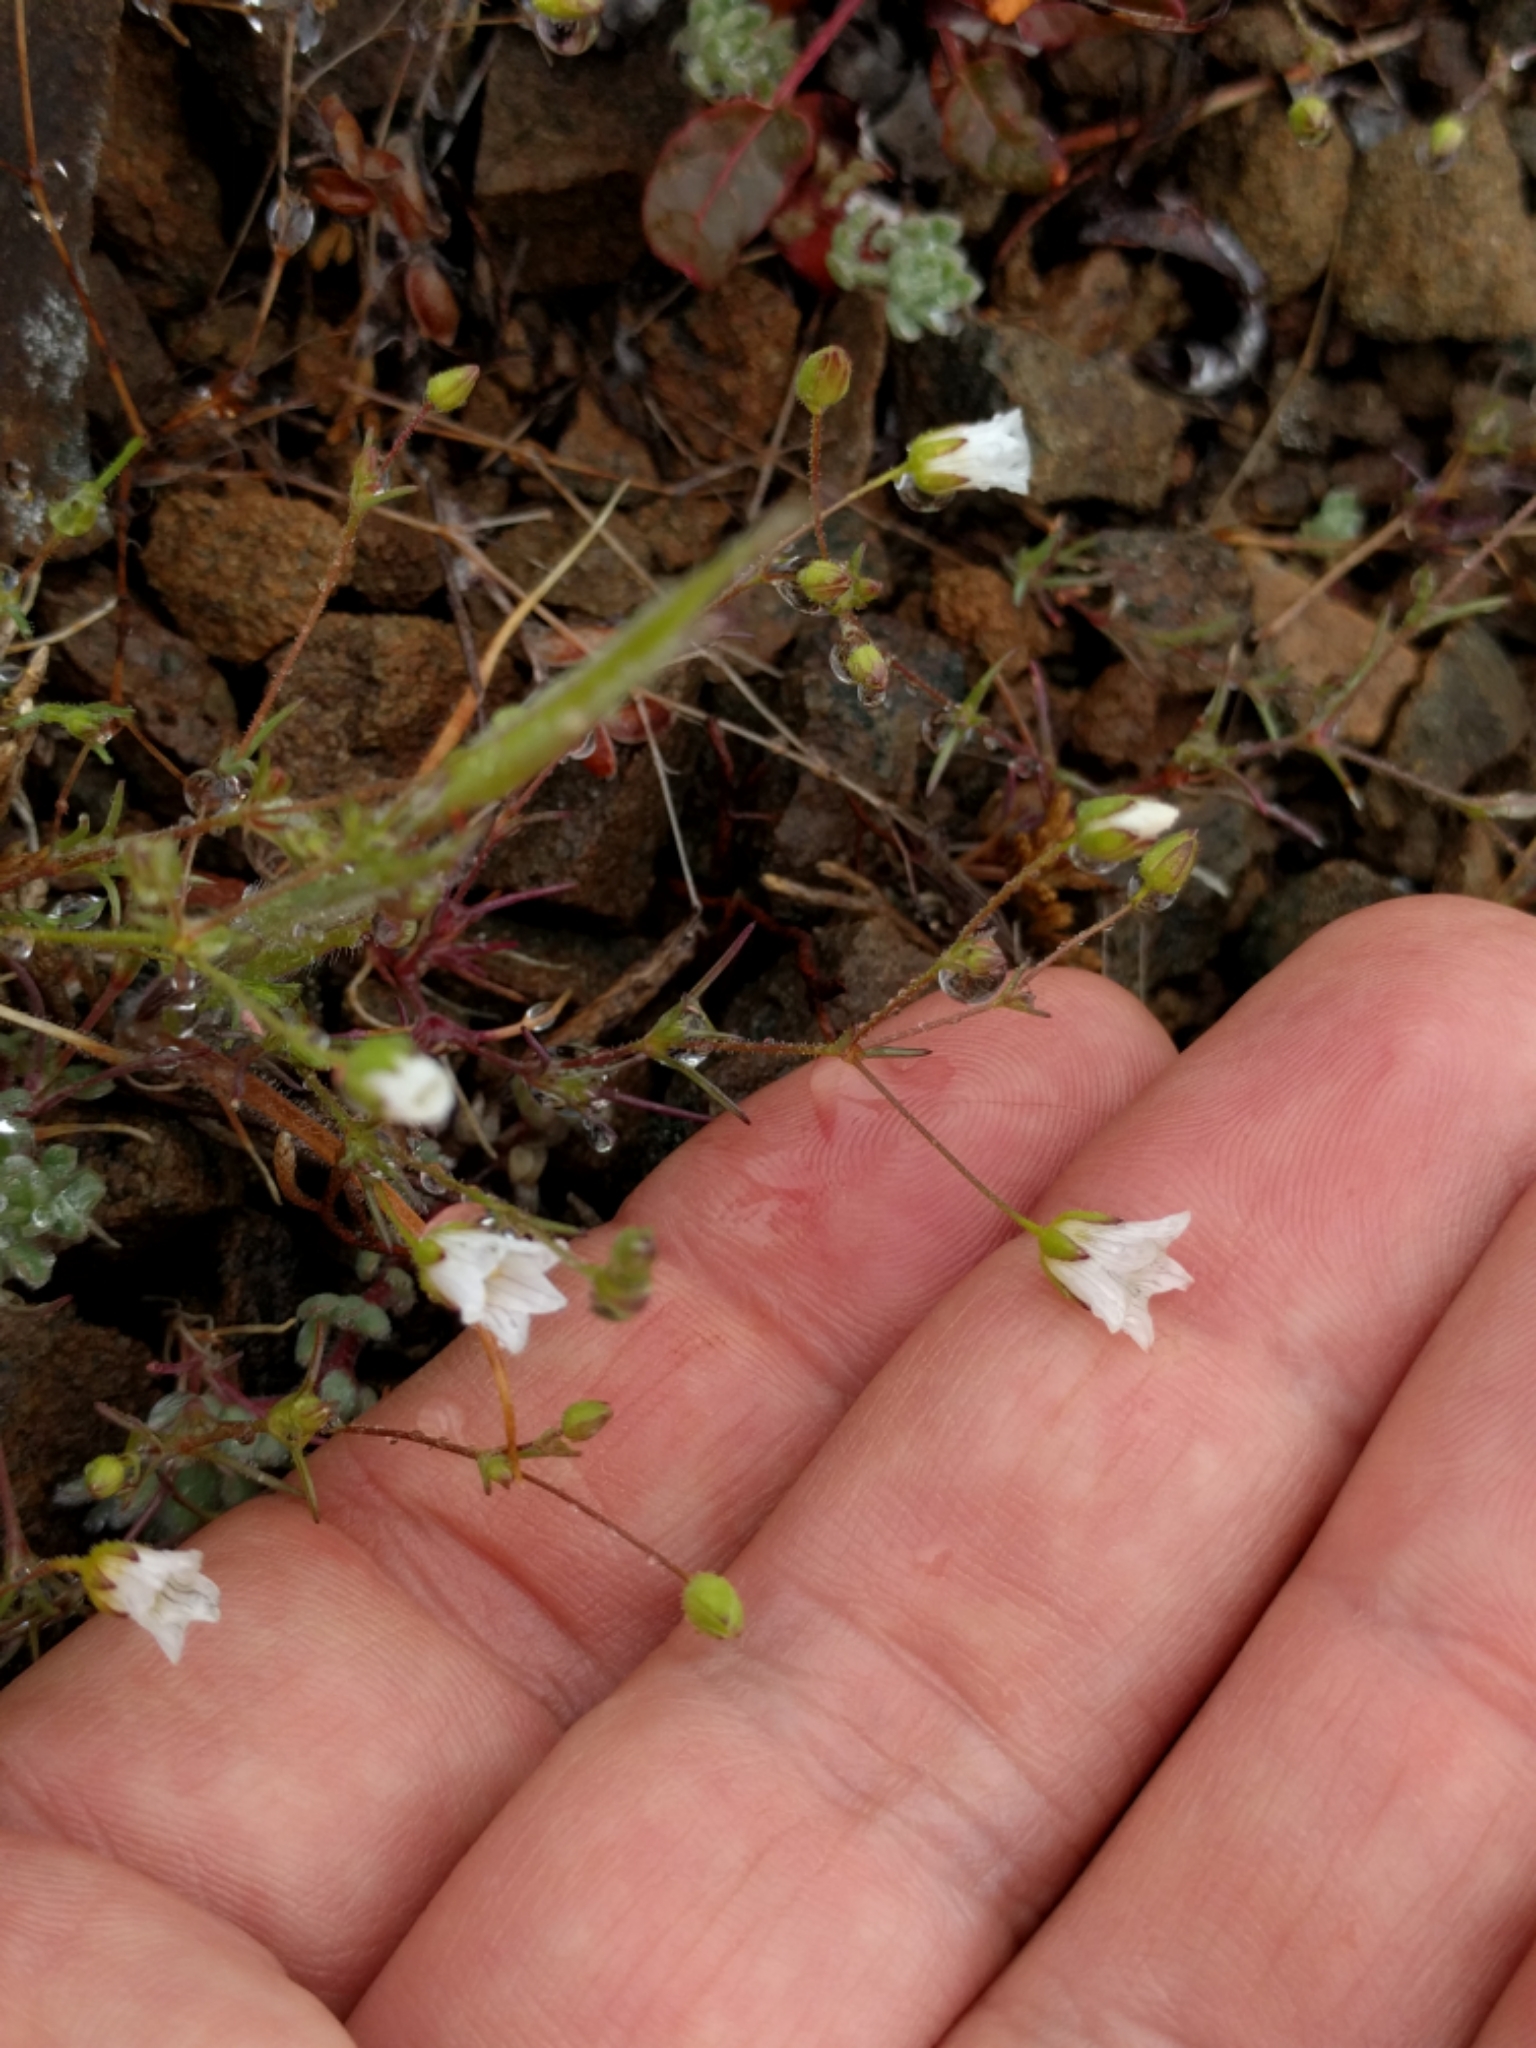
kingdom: Plantae
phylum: Tracheophyta
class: Magnoliopsida
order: Caryophyllales
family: Caryophyllaceae
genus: Sabulina
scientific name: Sabulina douglasii
